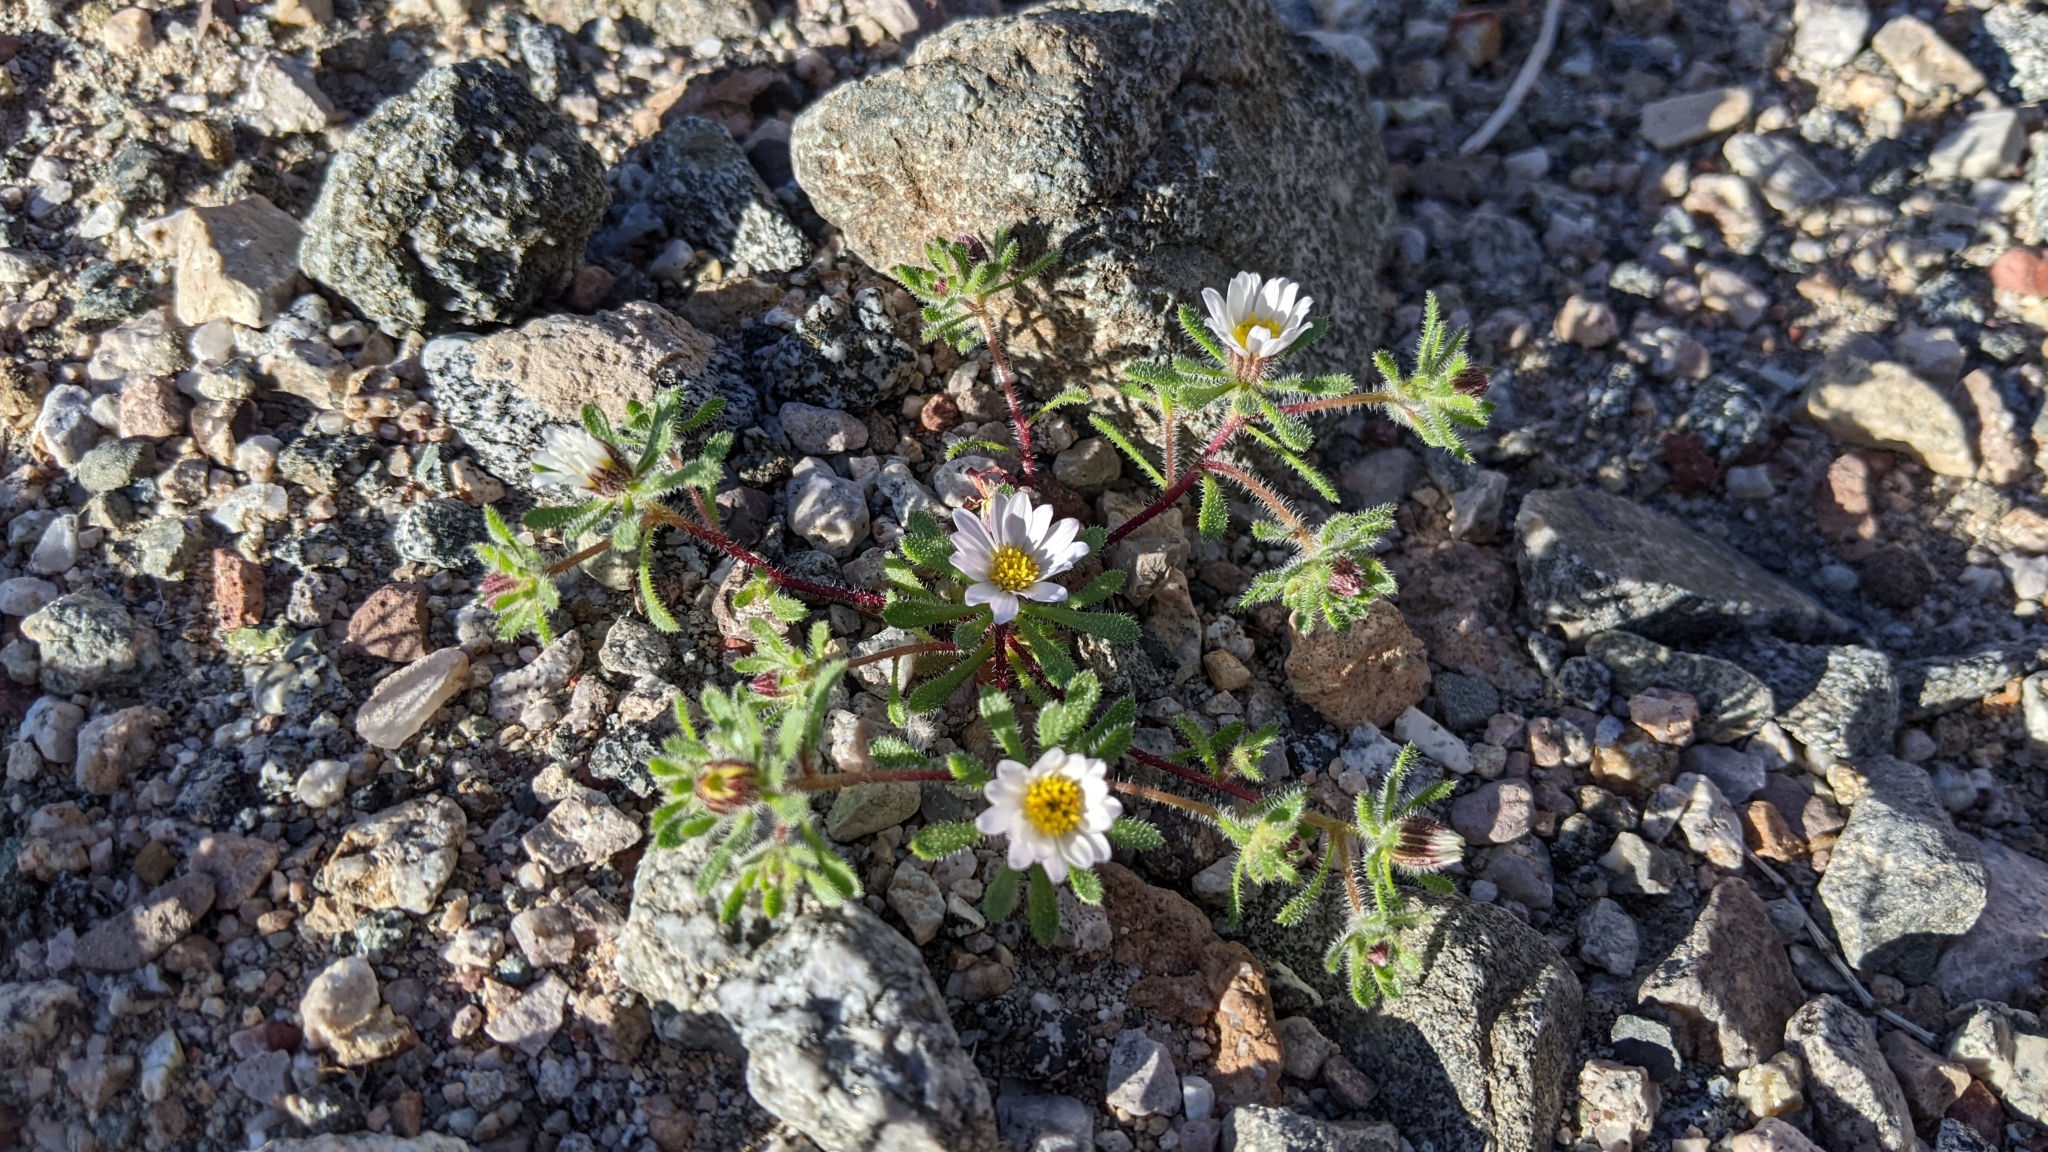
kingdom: Plantae
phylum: Tracheophyta
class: Magnoliopsida
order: Asterales
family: Asteraceae
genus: Monoptilon
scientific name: Monoptilon bellioides
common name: Bristly desertstar
